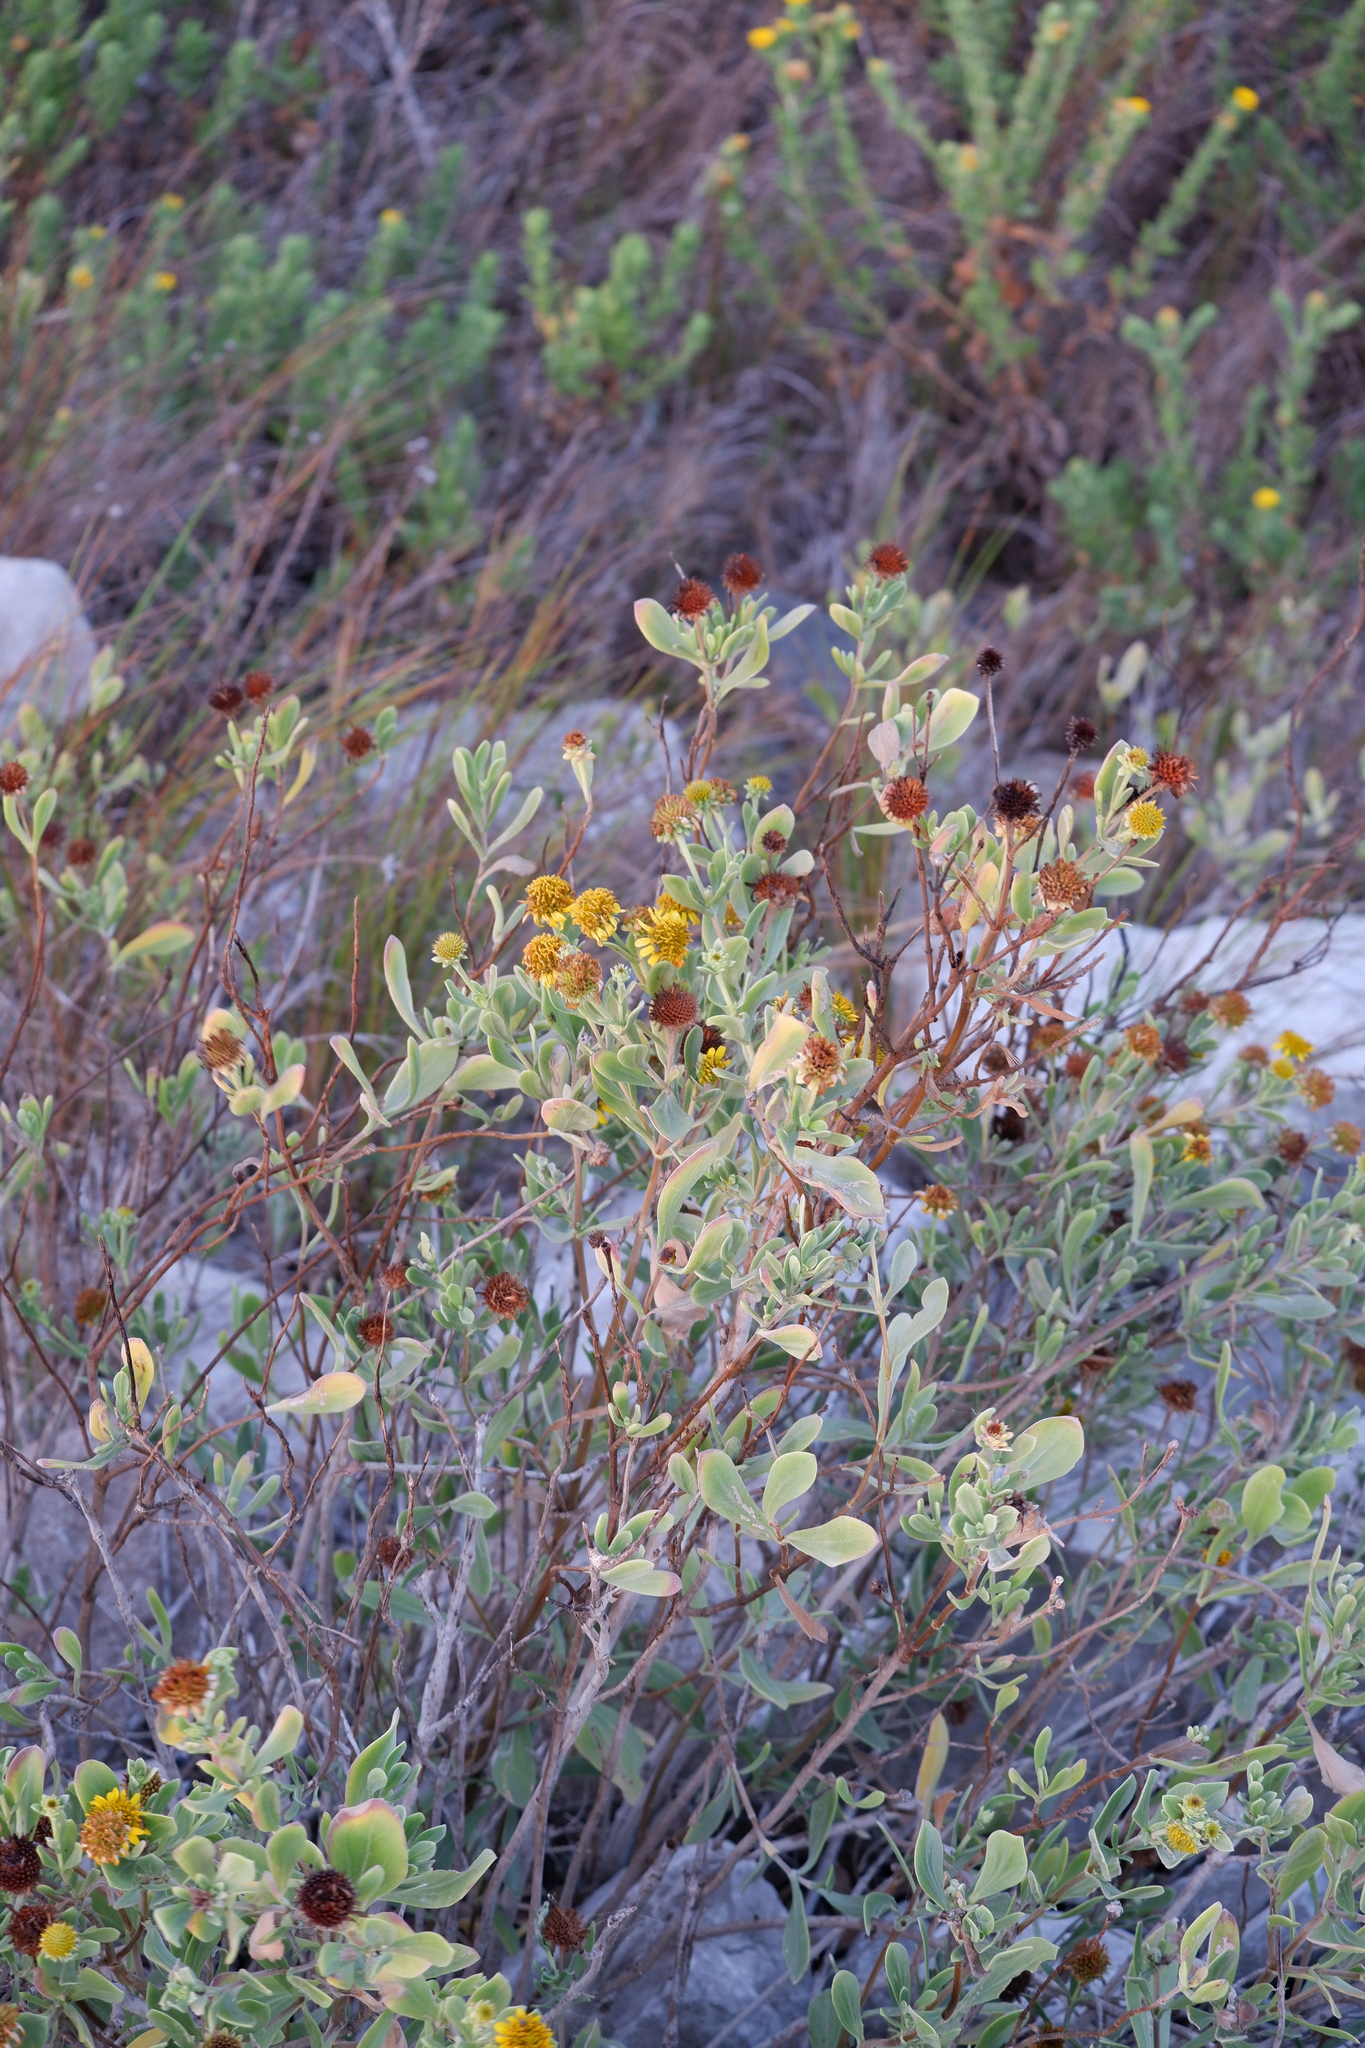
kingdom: Plantae
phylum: Tracheophyta
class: Magnoliopsida
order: Asterales
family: Asteraceae
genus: Borrichia
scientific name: Borrichia frutescens
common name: Sea oxeye
